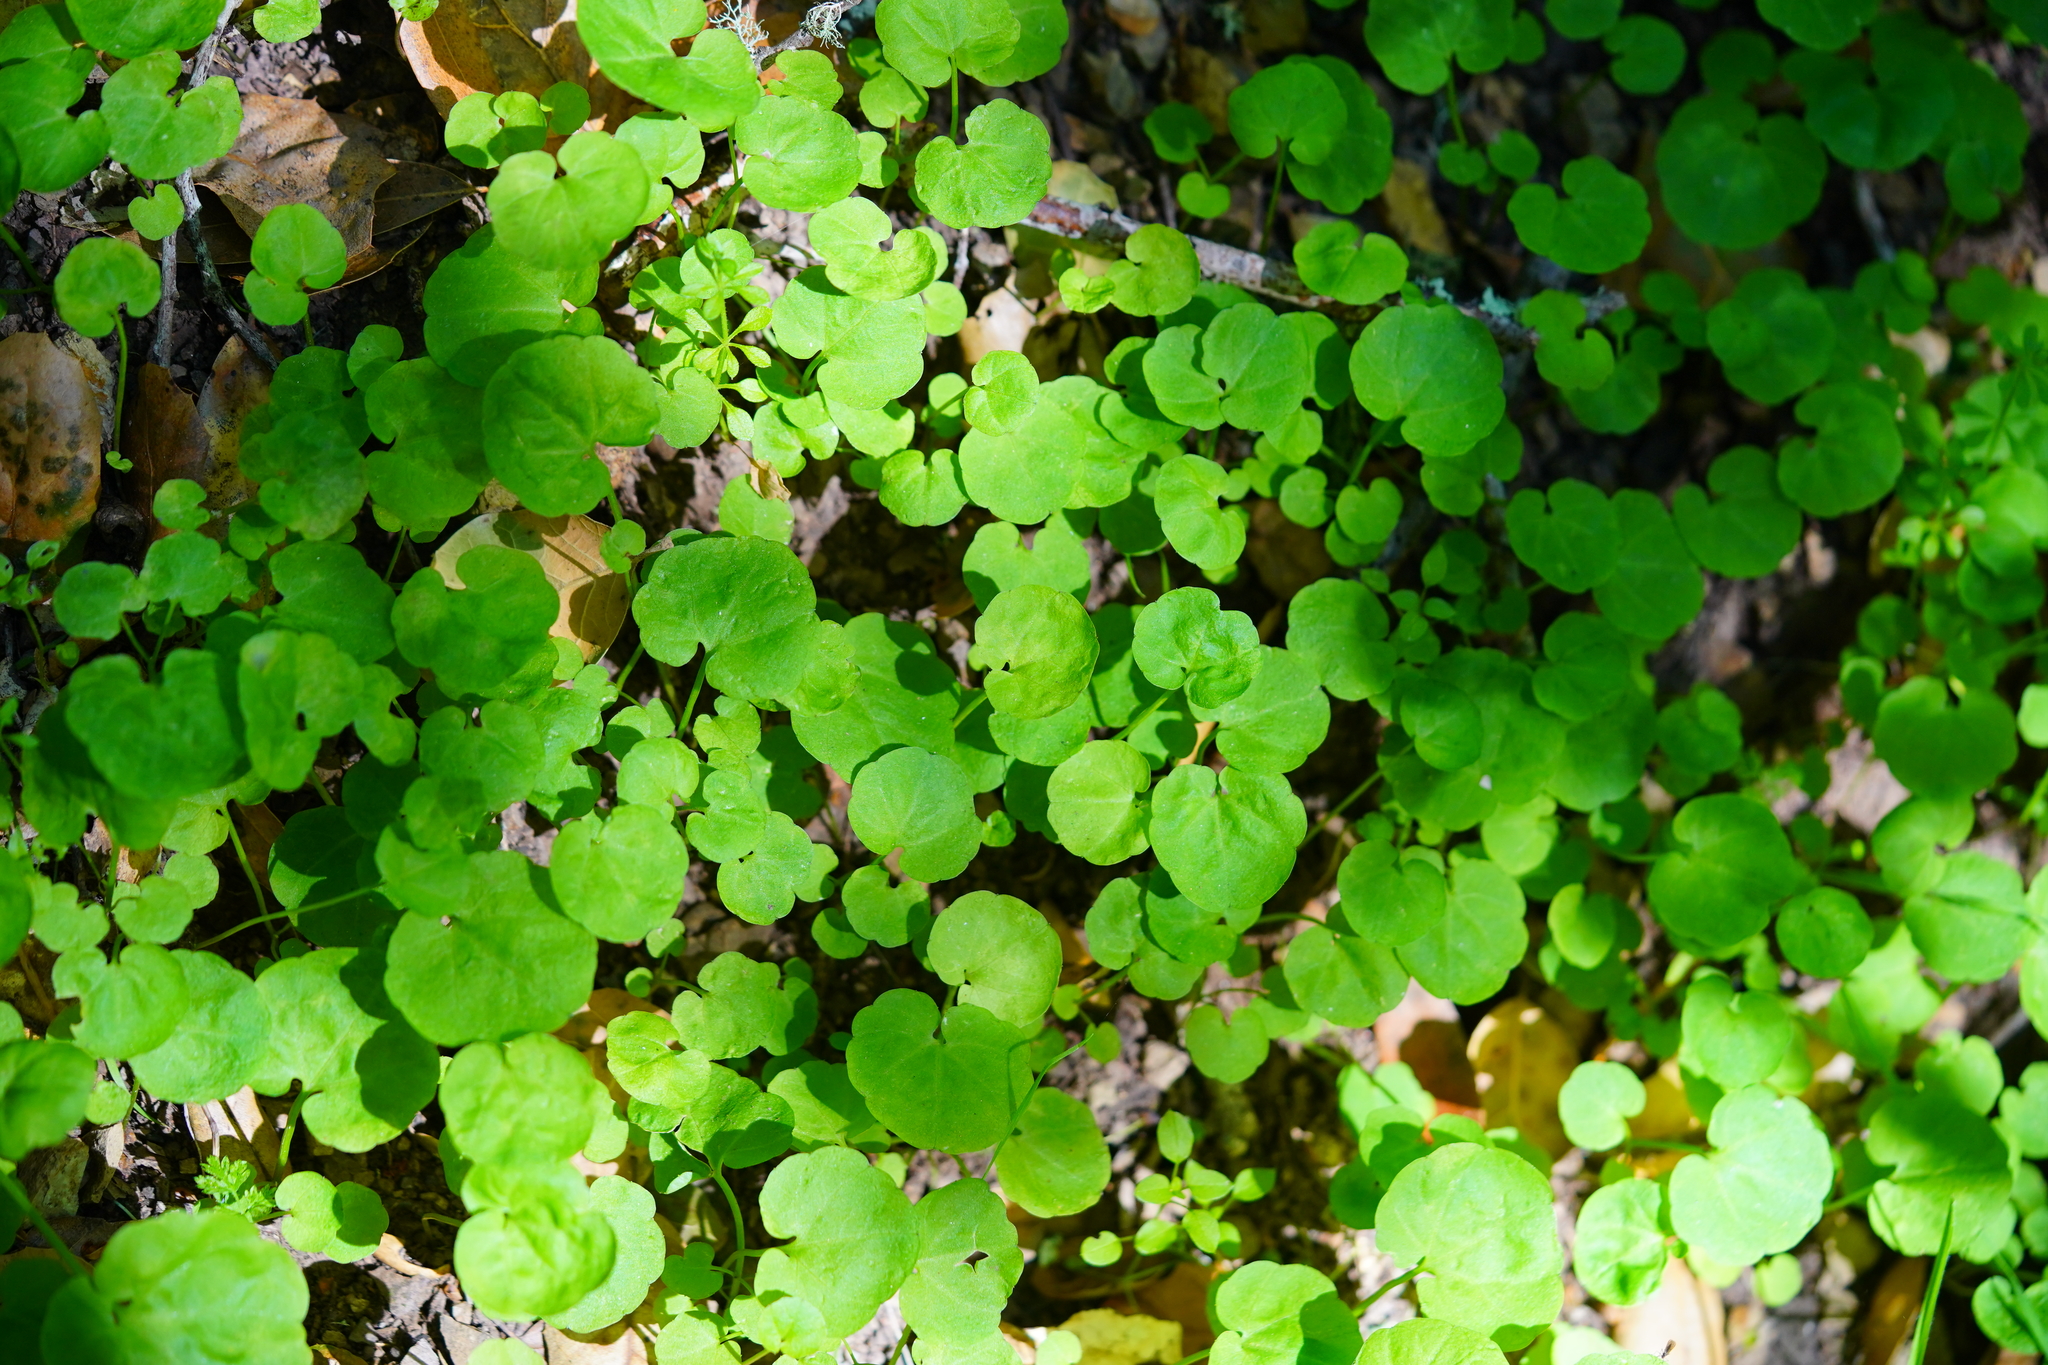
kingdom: Plantae
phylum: Tracheophyta
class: Magnoliopsida
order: Brassicales
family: Brassicaceae
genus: Cardamine
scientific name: Cardamine californica
